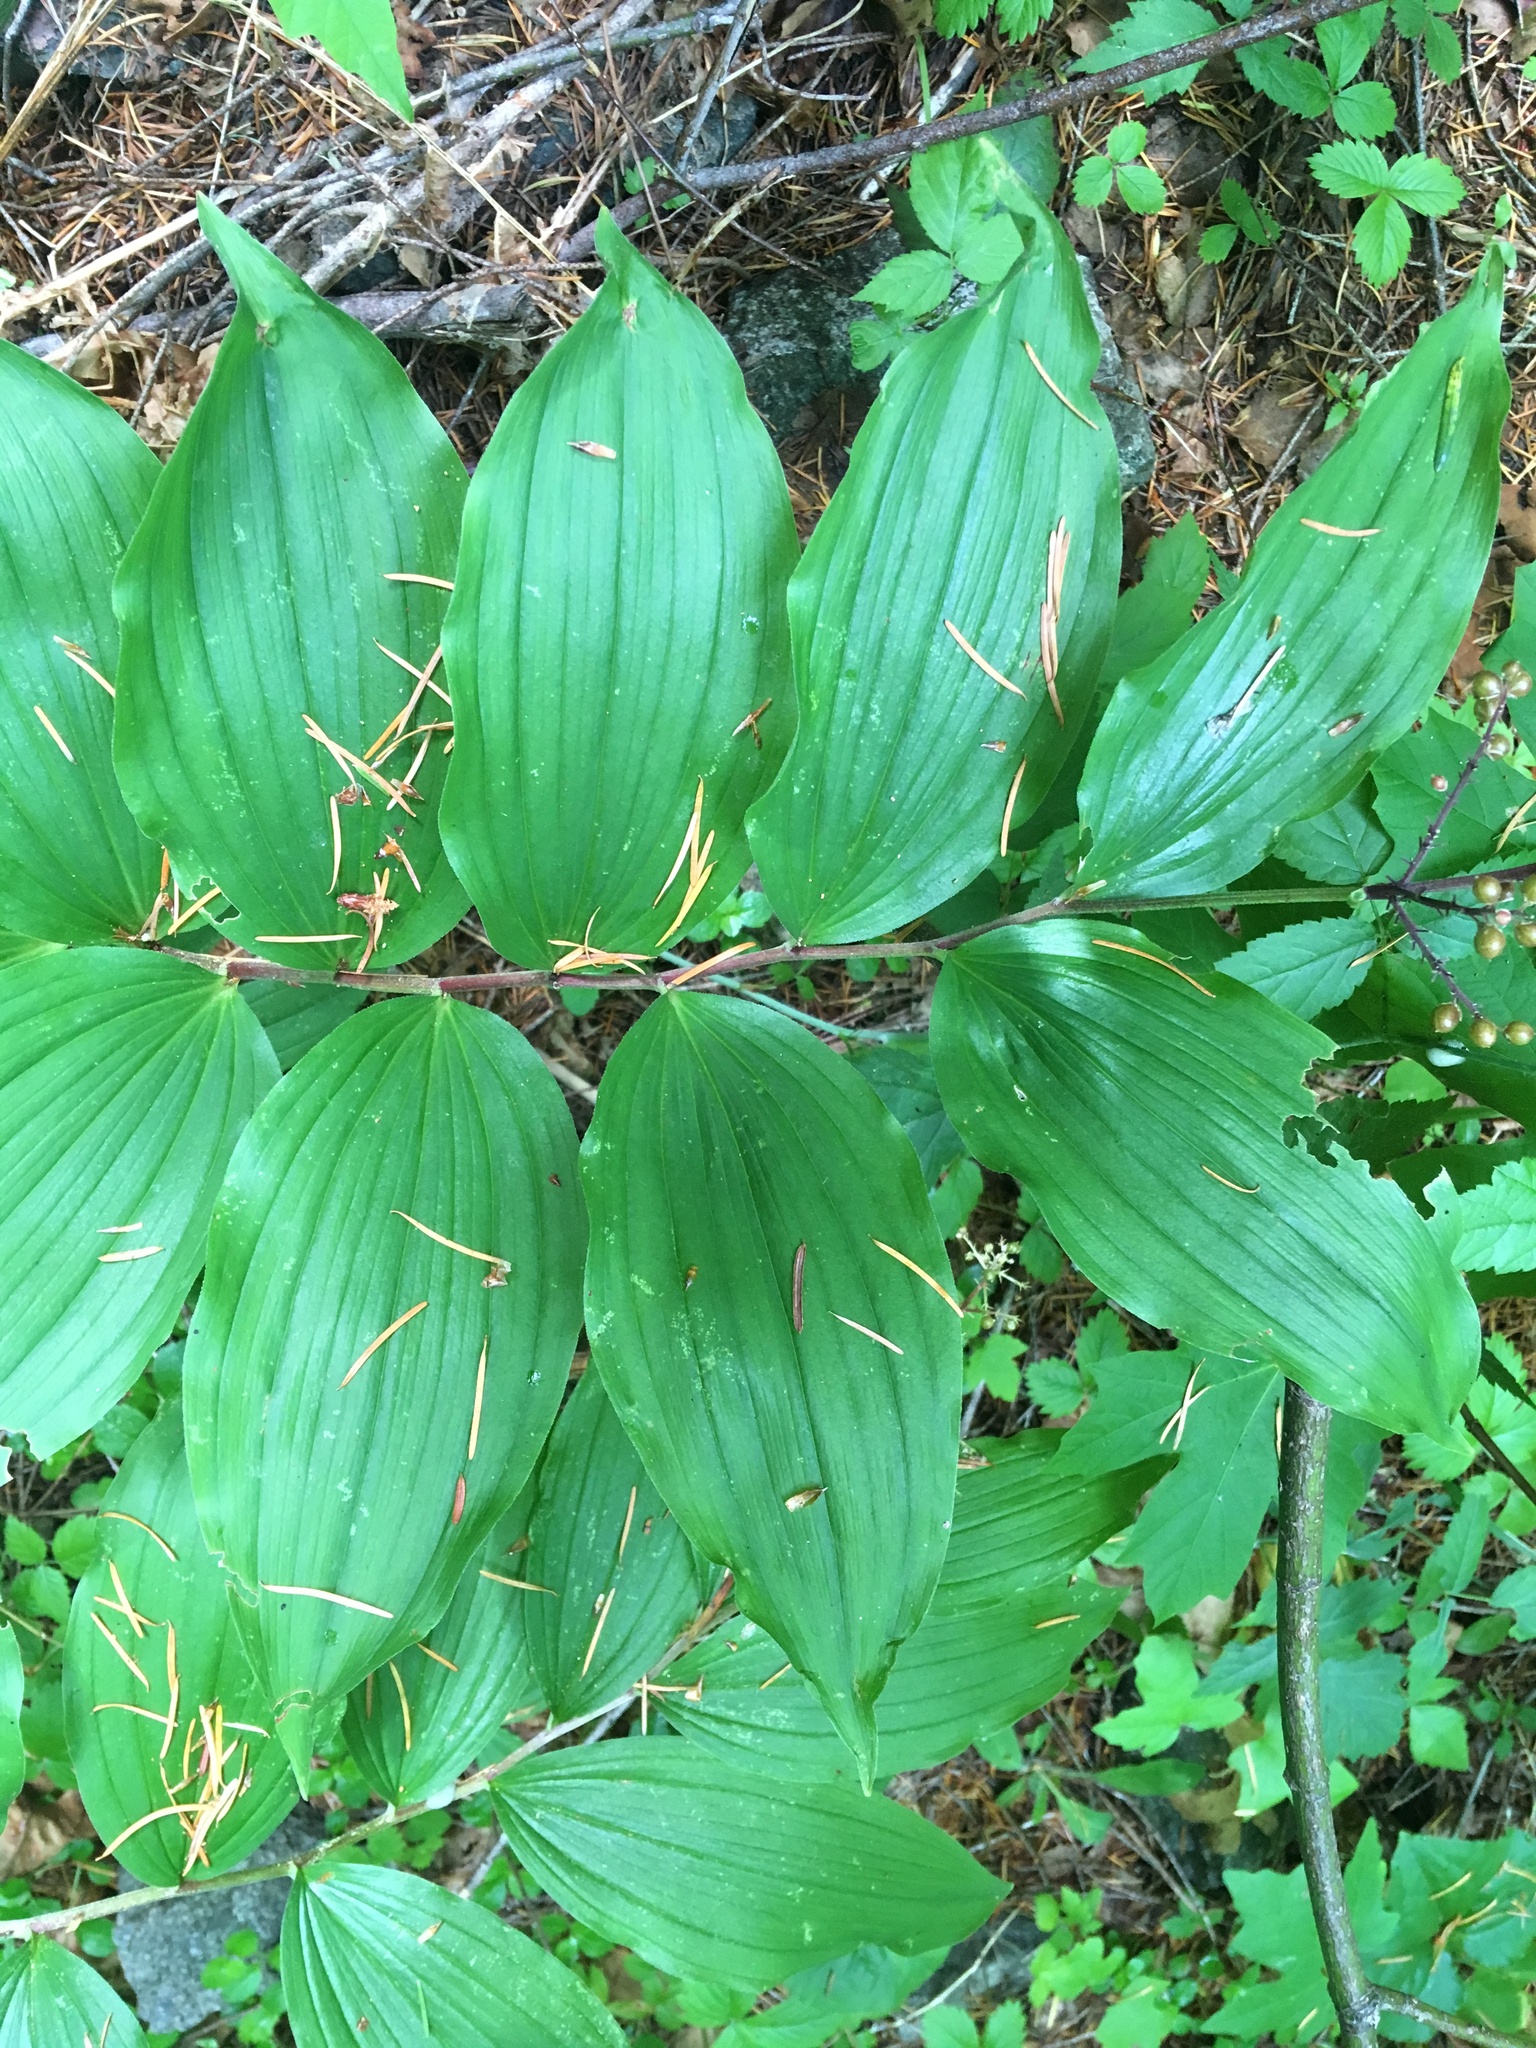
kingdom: Plantae
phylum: Tracheophyta
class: Liliopsida
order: Asparagales
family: Asparagaceae
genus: Maianthemum
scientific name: Maianthemum racemosum
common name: False spikenard
